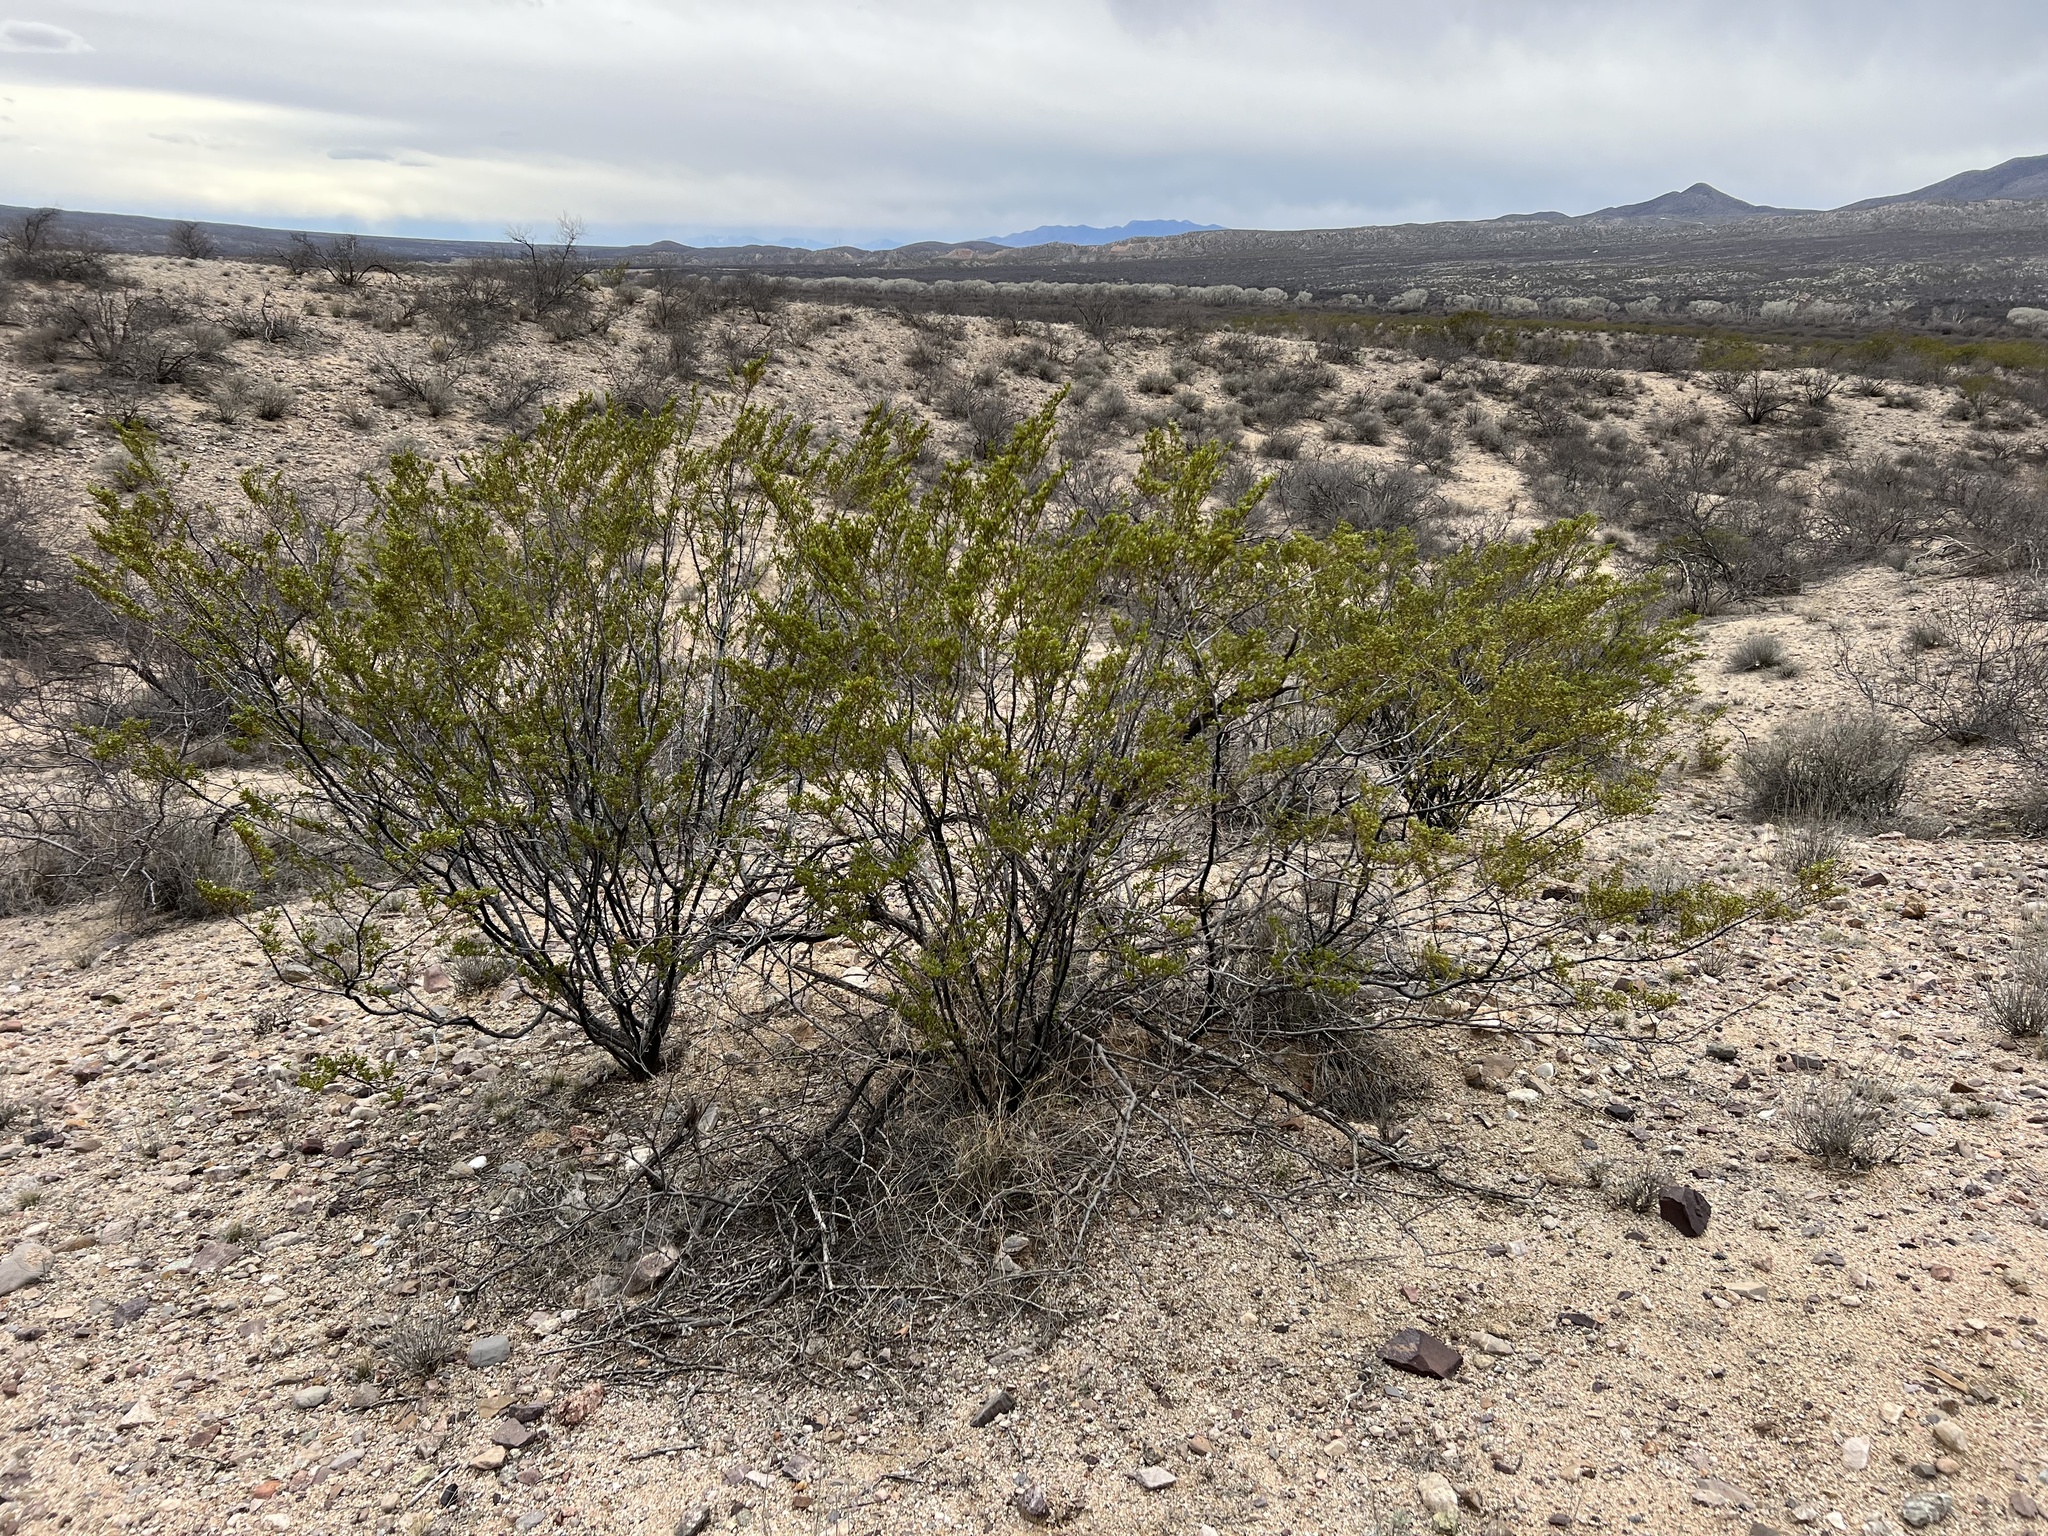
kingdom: Plantae
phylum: Tracheophyta
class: Magnoliopsida
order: Zygophyllales
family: Zygophyllaceae
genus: Larrea
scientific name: Larrea tridentata
